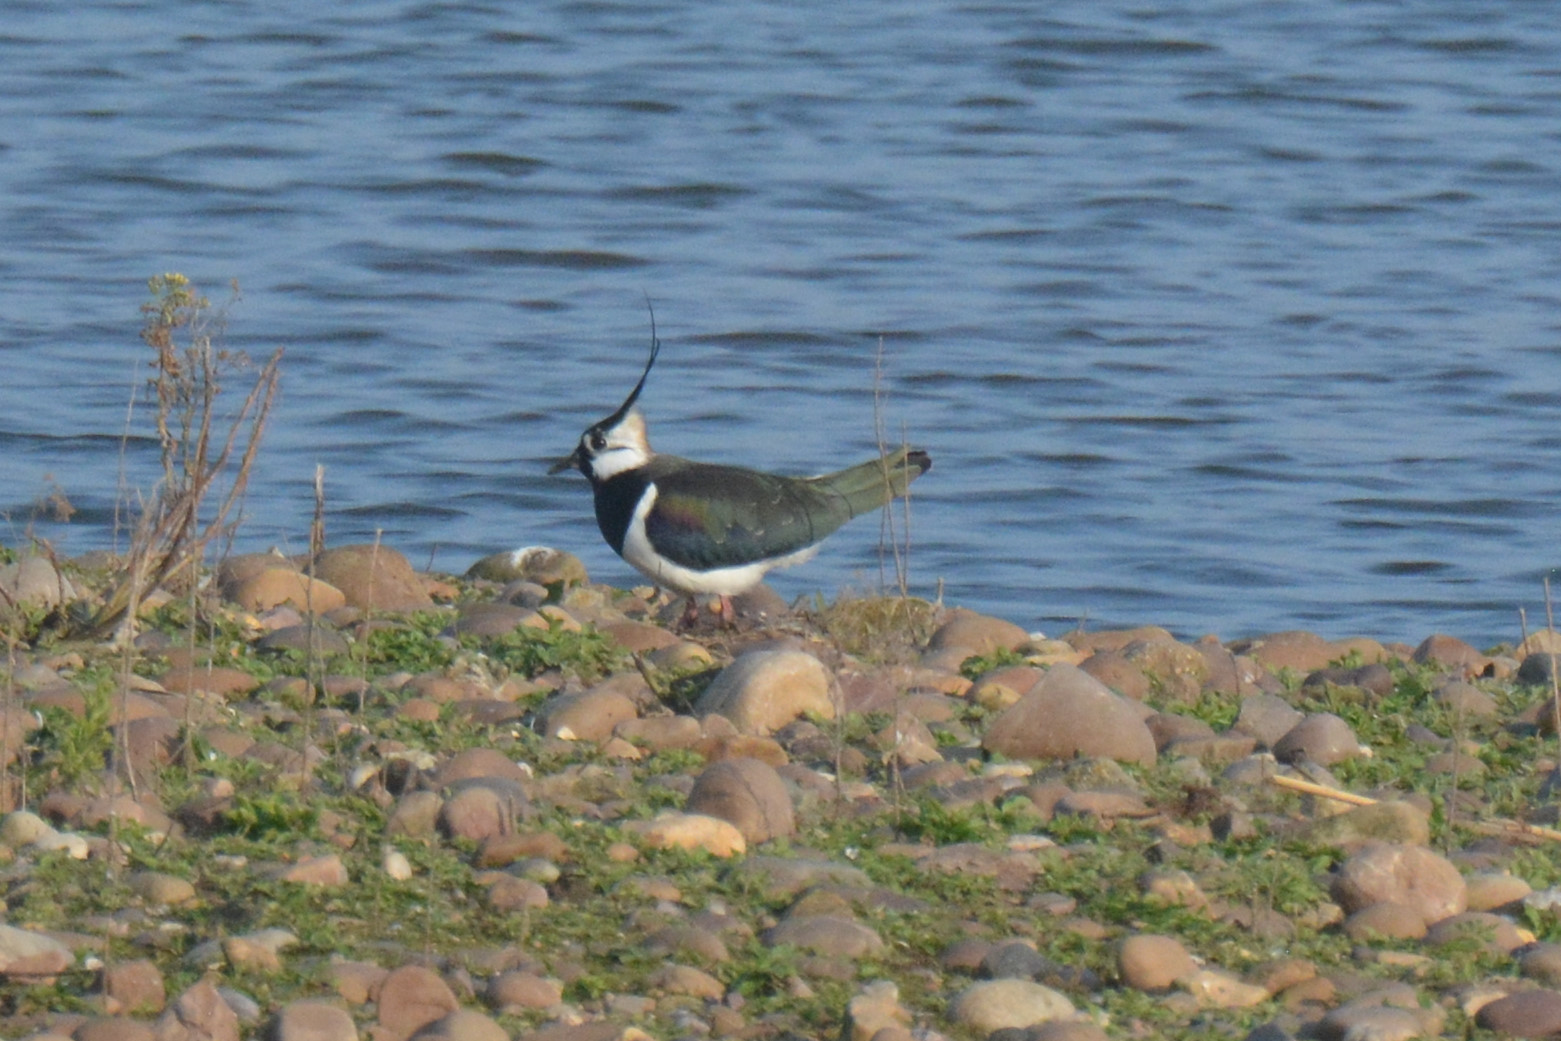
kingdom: Animalia
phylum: Chordata
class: Aves
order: Charadriiformes
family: Charadriidae
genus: Vanellus
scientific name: Vanellus vanellus
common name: Northern lapwing
